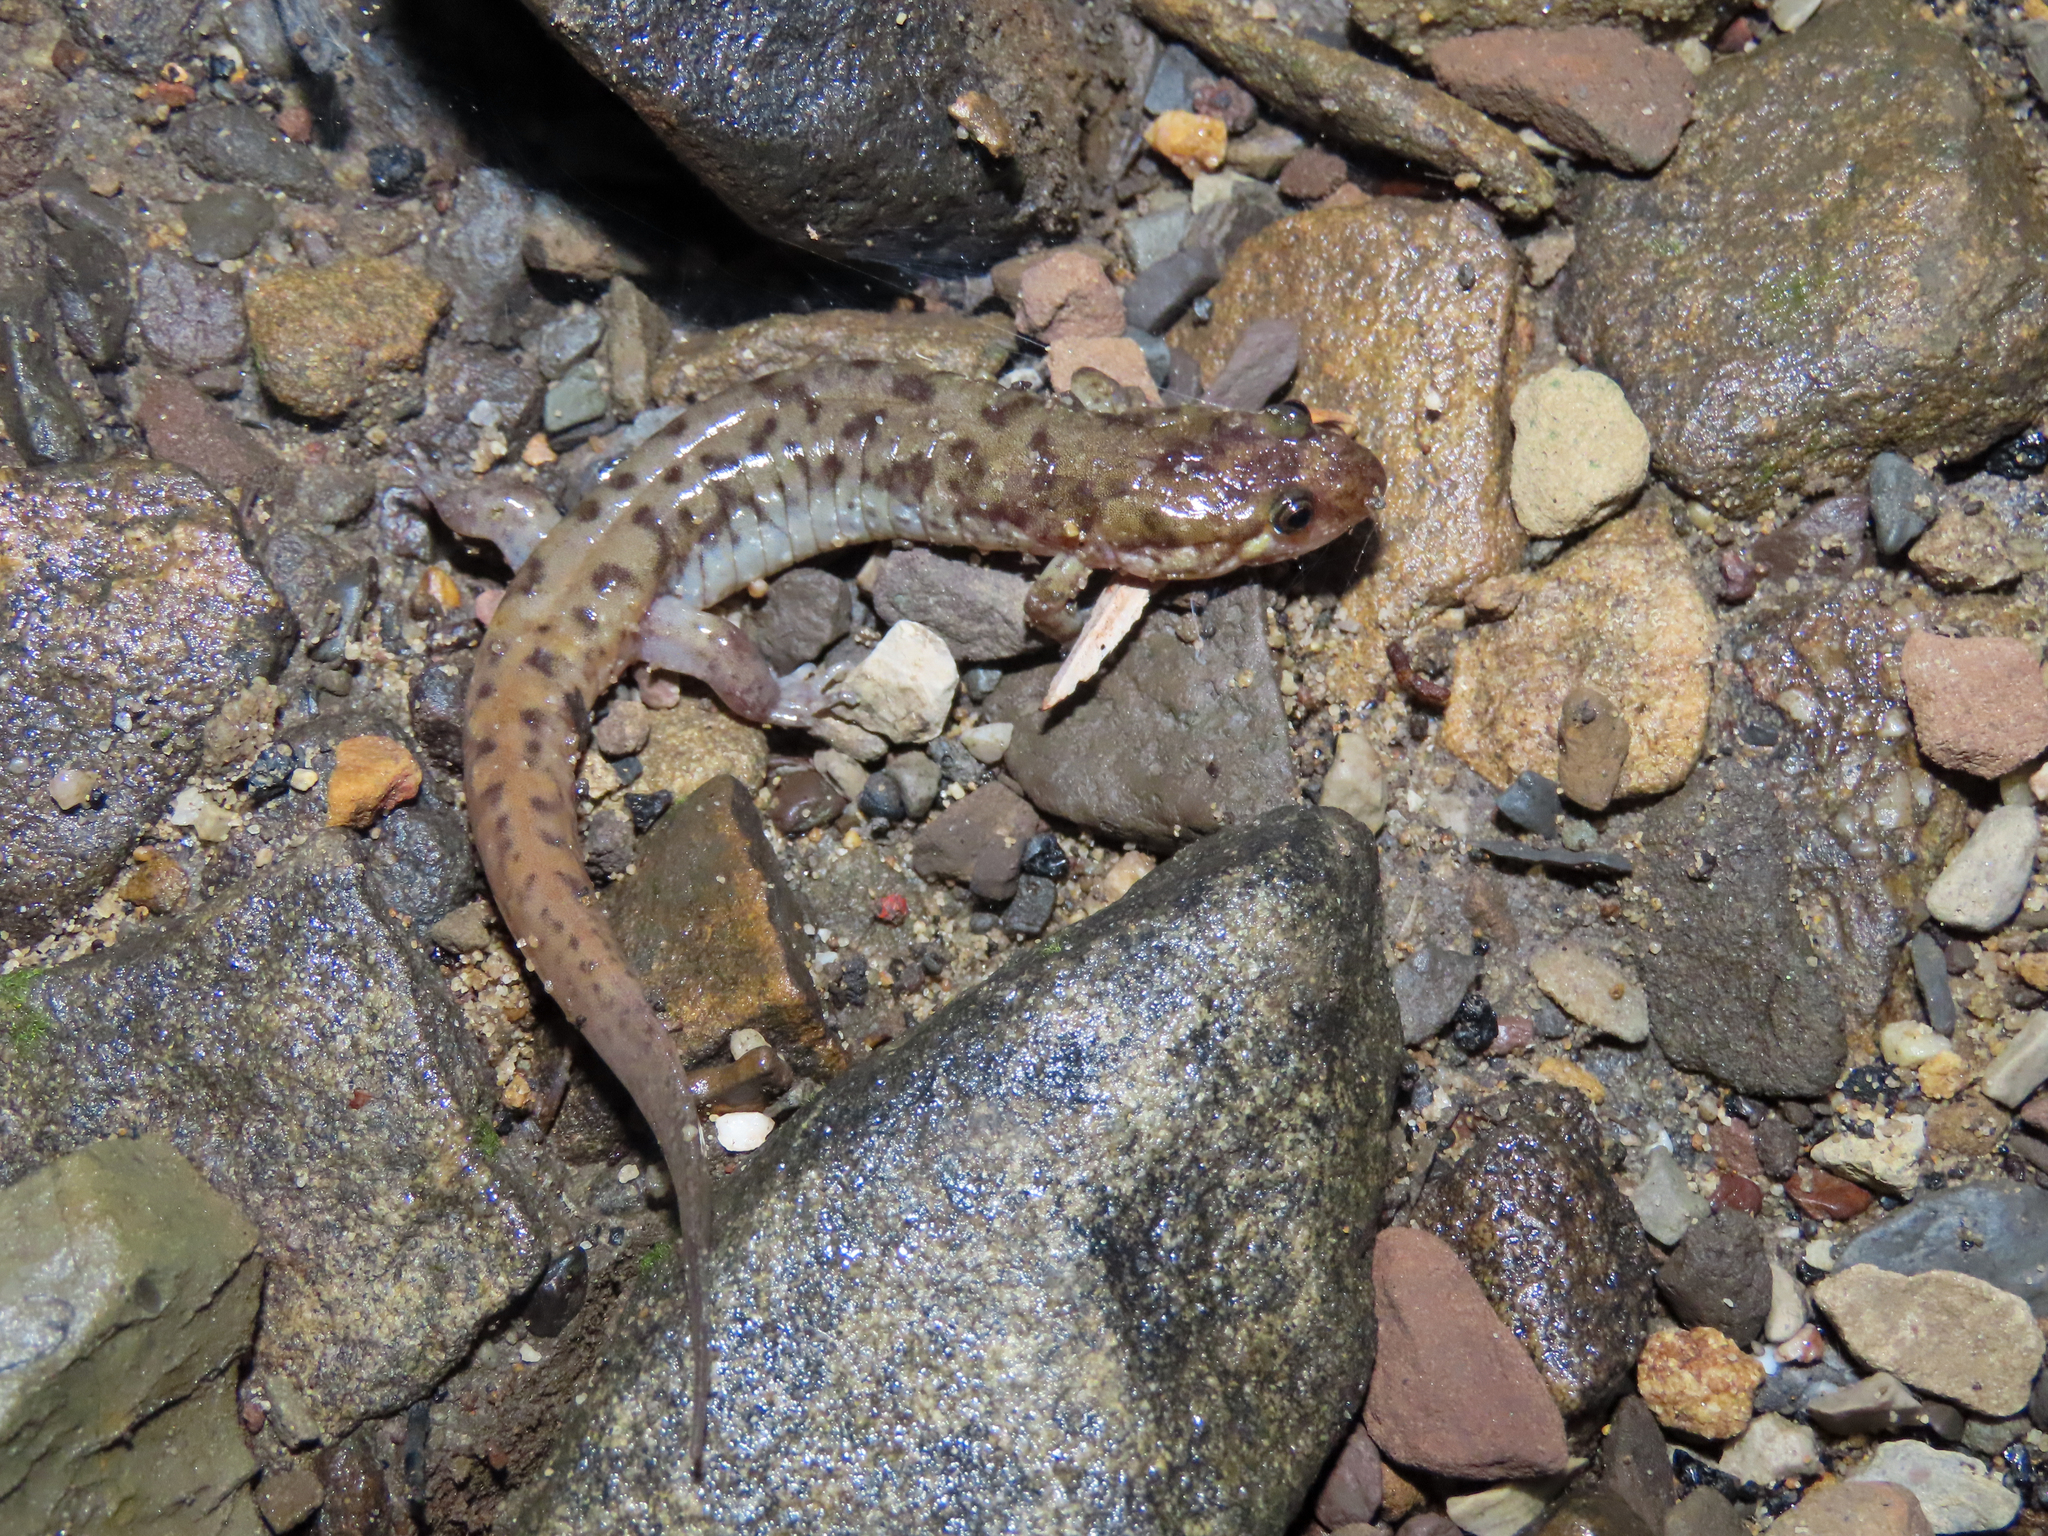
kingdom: Animalia
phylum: Chordata
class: Amphibia
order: Caudata
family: Plethodontidae
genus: Desmognathus
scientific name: Desmognathus monticola
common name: Seal salamander
